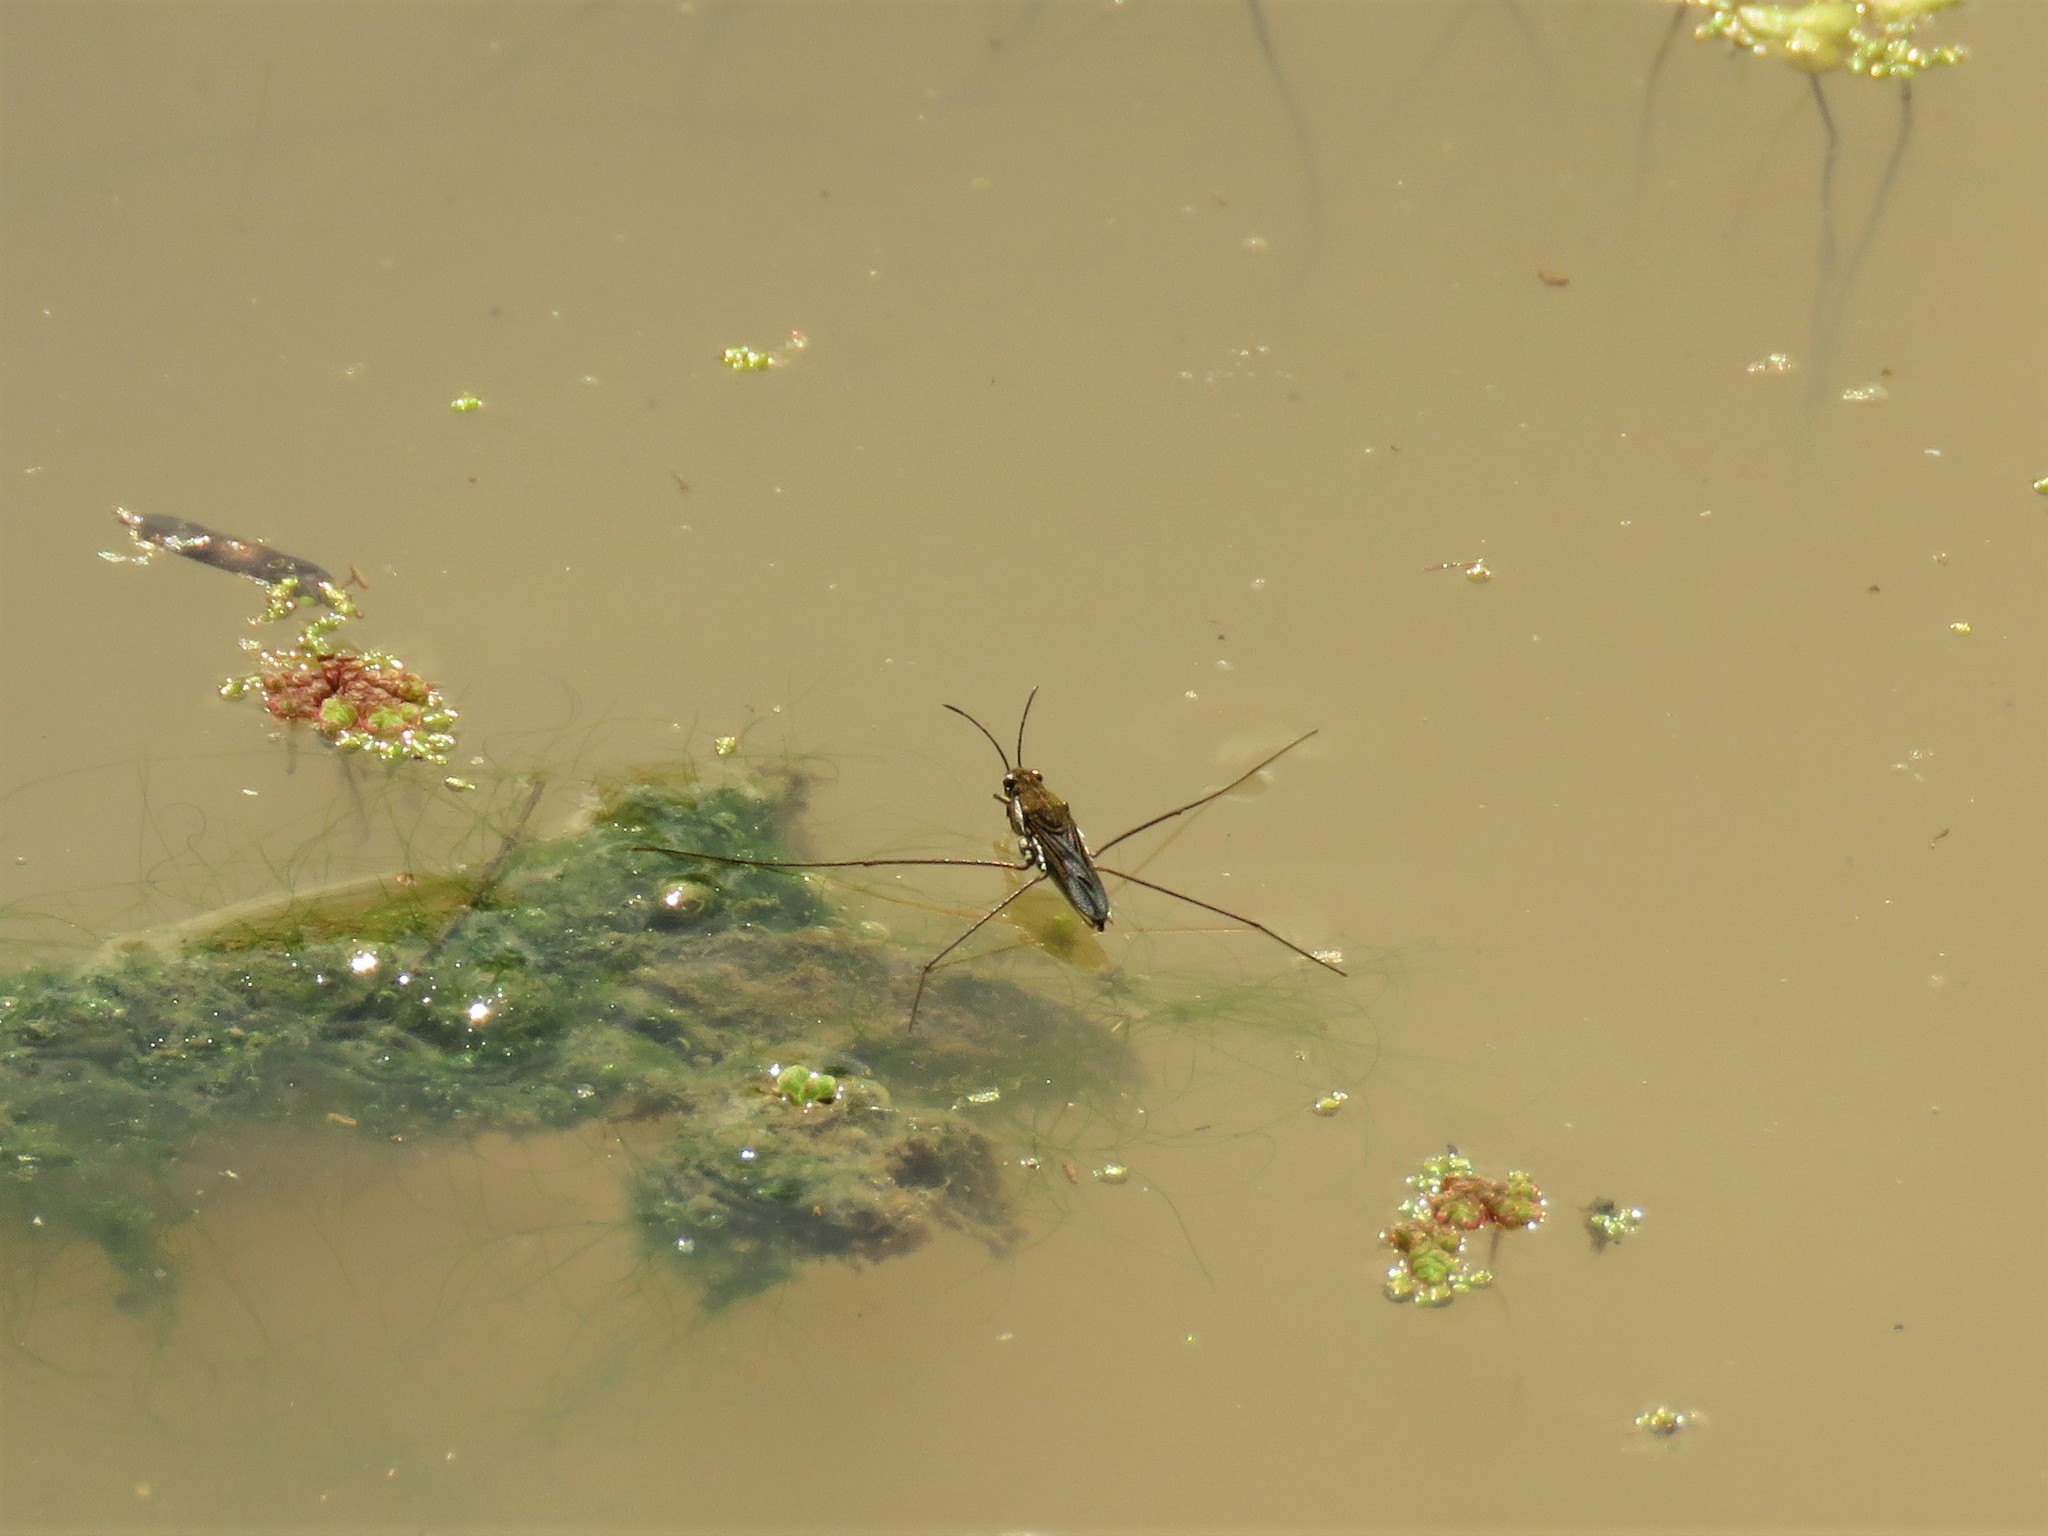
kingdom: Animalia
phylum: Arthropoda
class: Insecta
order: Hemiptera
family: Gerridae
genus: Gerris
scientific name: Gerris swakopensis
